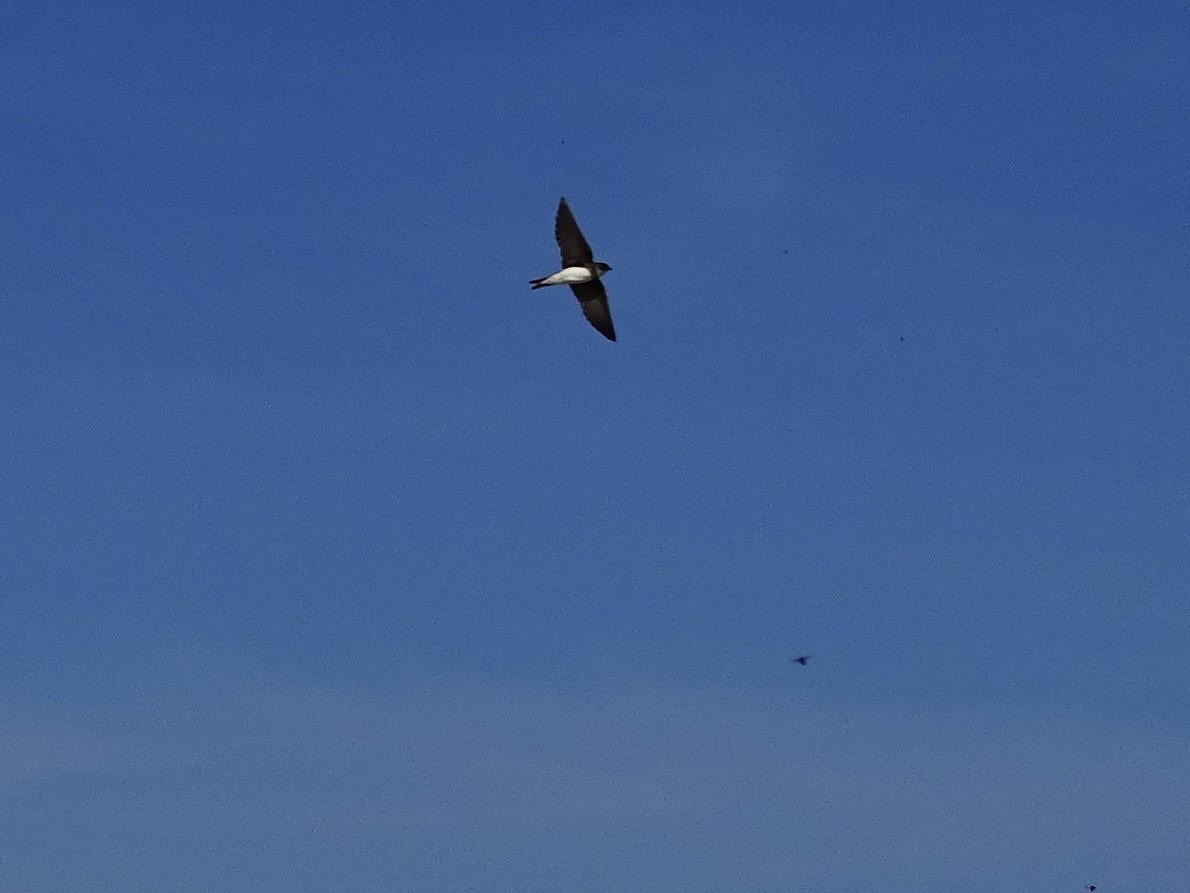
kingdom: Animalia
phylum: Chordata
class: Aves
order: Passeriformes
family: Hirundinidae
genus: Riparia
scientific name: Riparia riparia
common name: Sand martin
